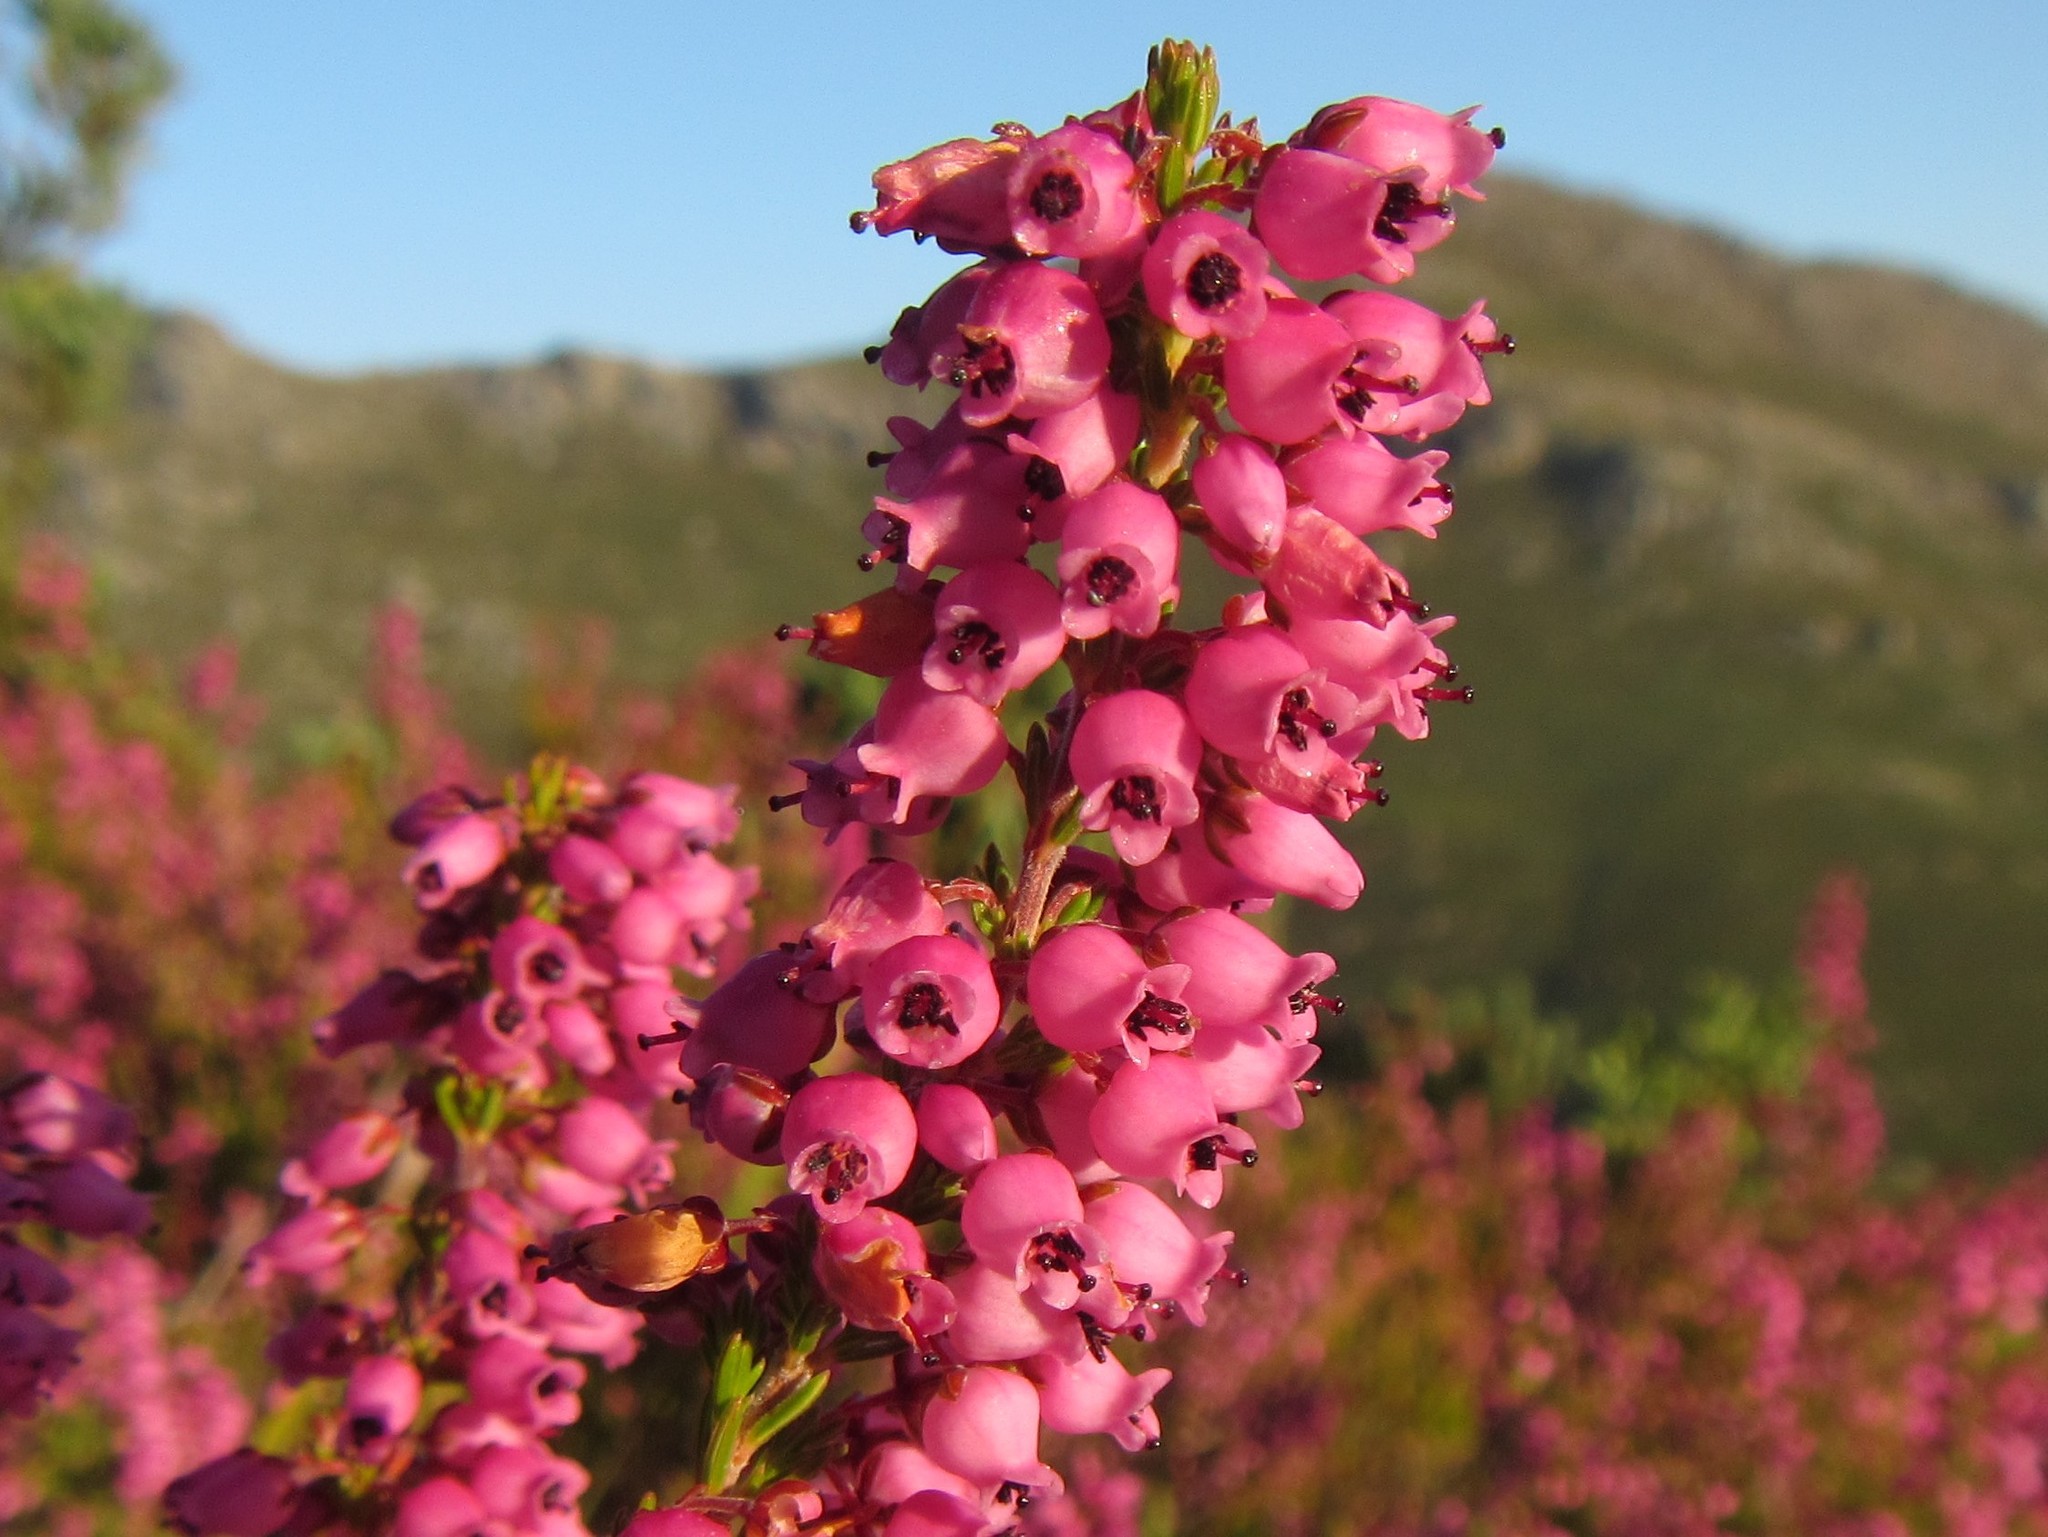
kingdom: Plantae
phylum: Tracheophyta
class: Magnoliopsida
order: Ericales
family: Ericaceae
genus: Erica
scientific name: Erica lateralis
